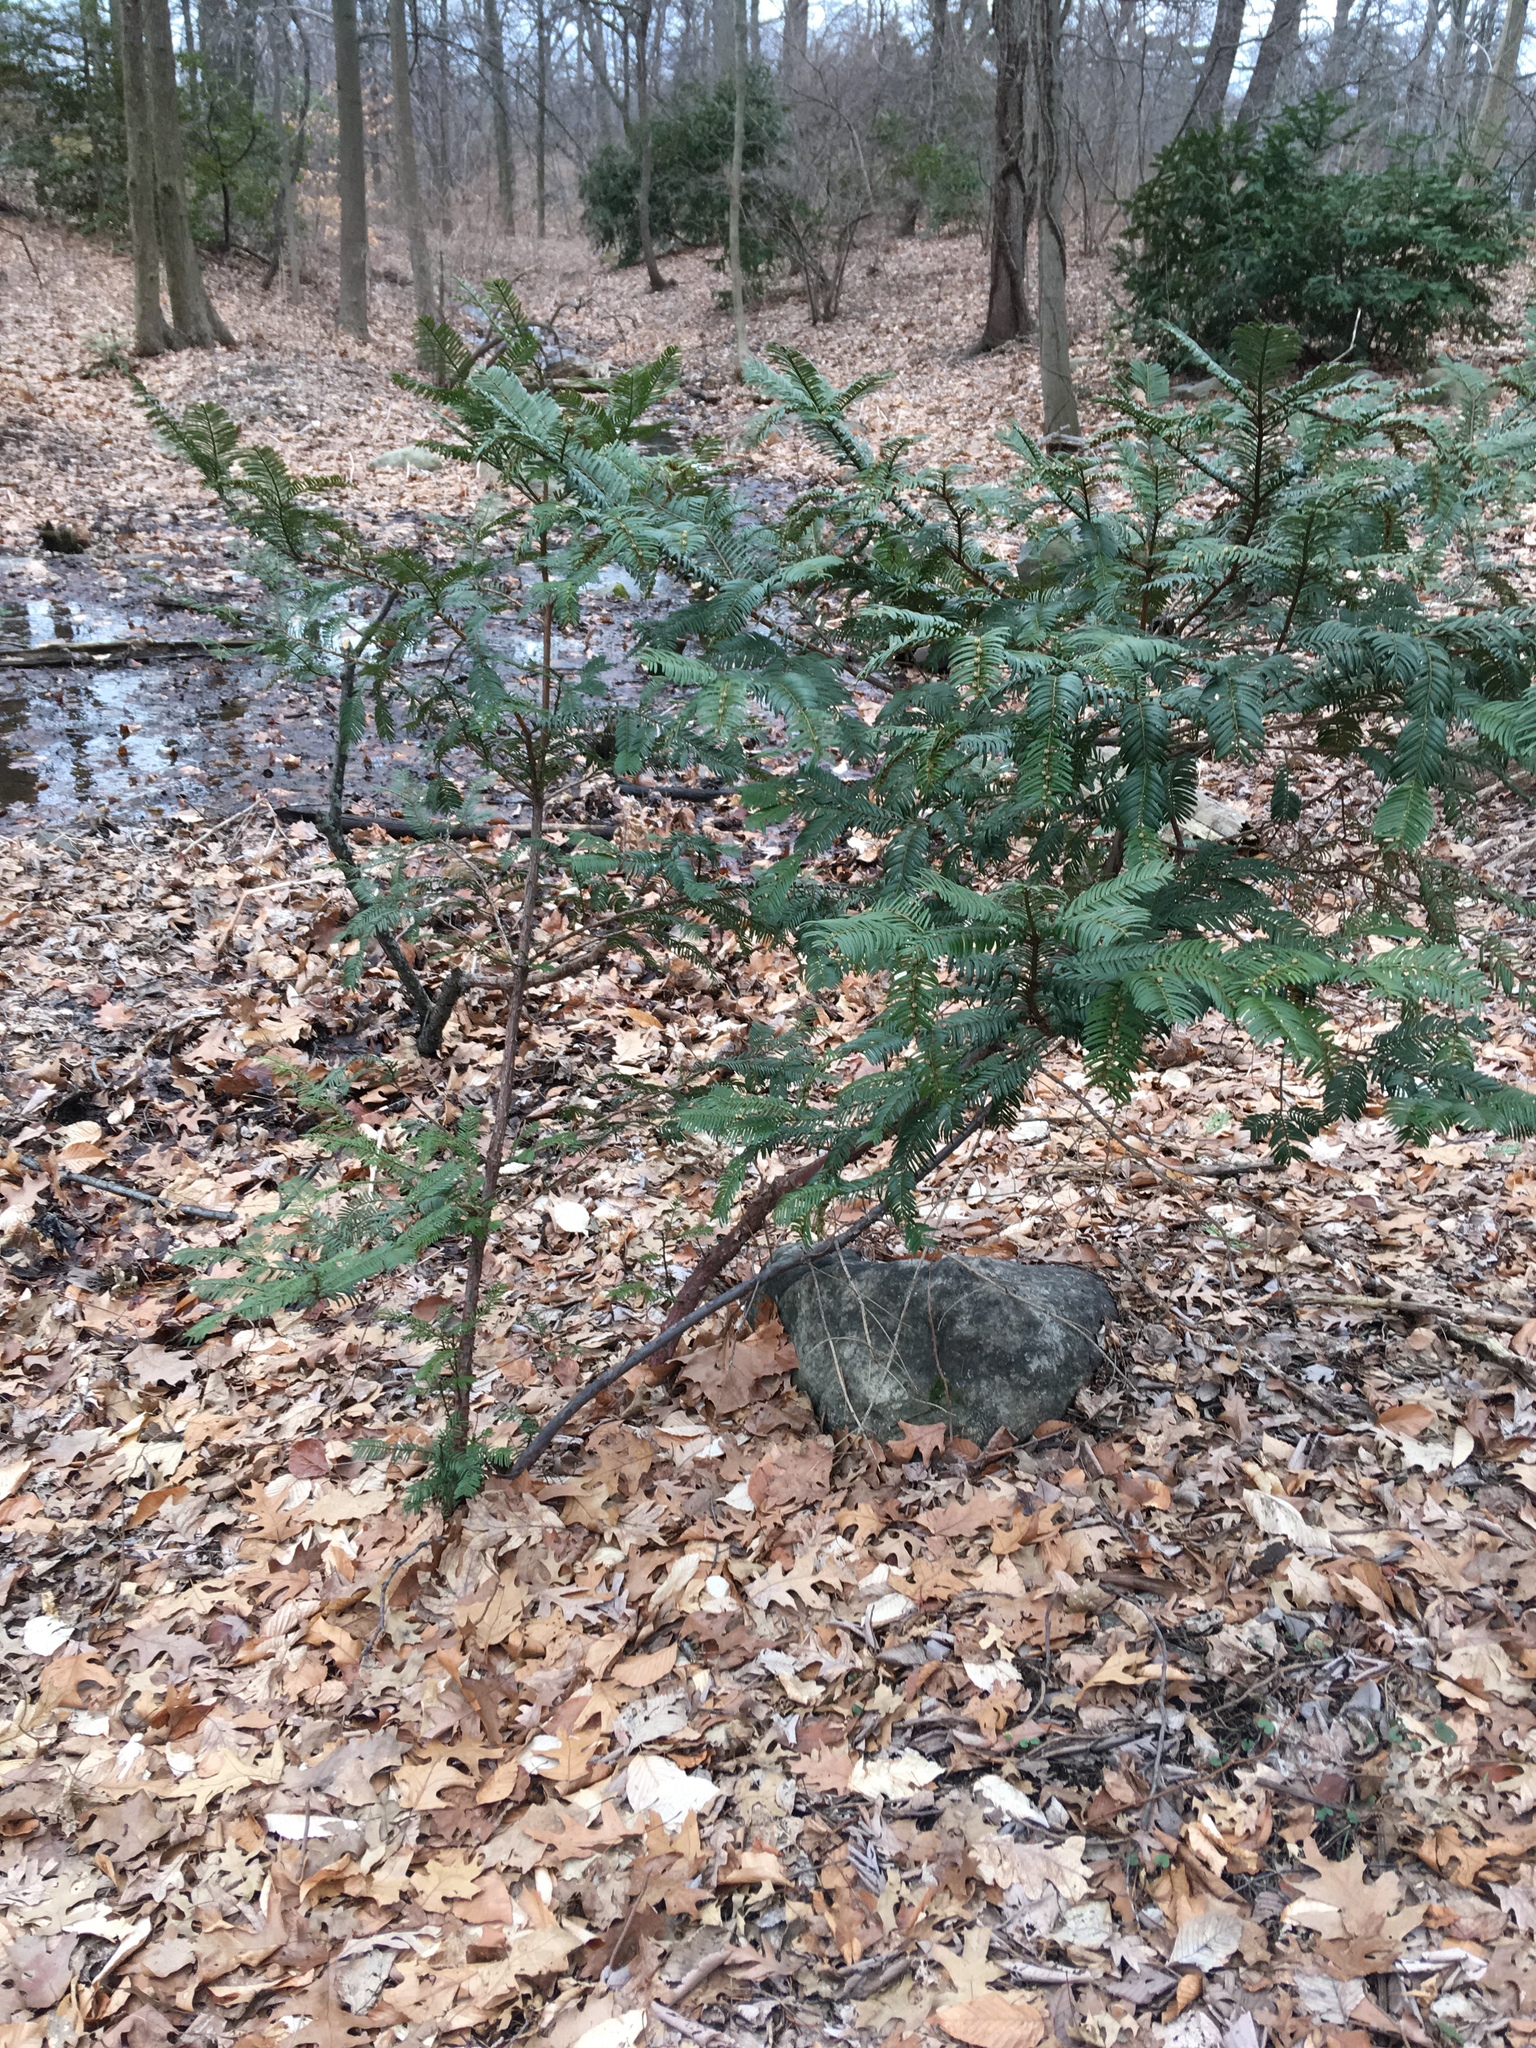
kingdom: Plantae
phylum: Tracheophyta
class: Pinopsida
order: Pinales
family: Cephalotaxaceae
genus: Cephalotaxus
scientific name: Cephalotaxus harringtonia
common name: Japanese plum-yew
